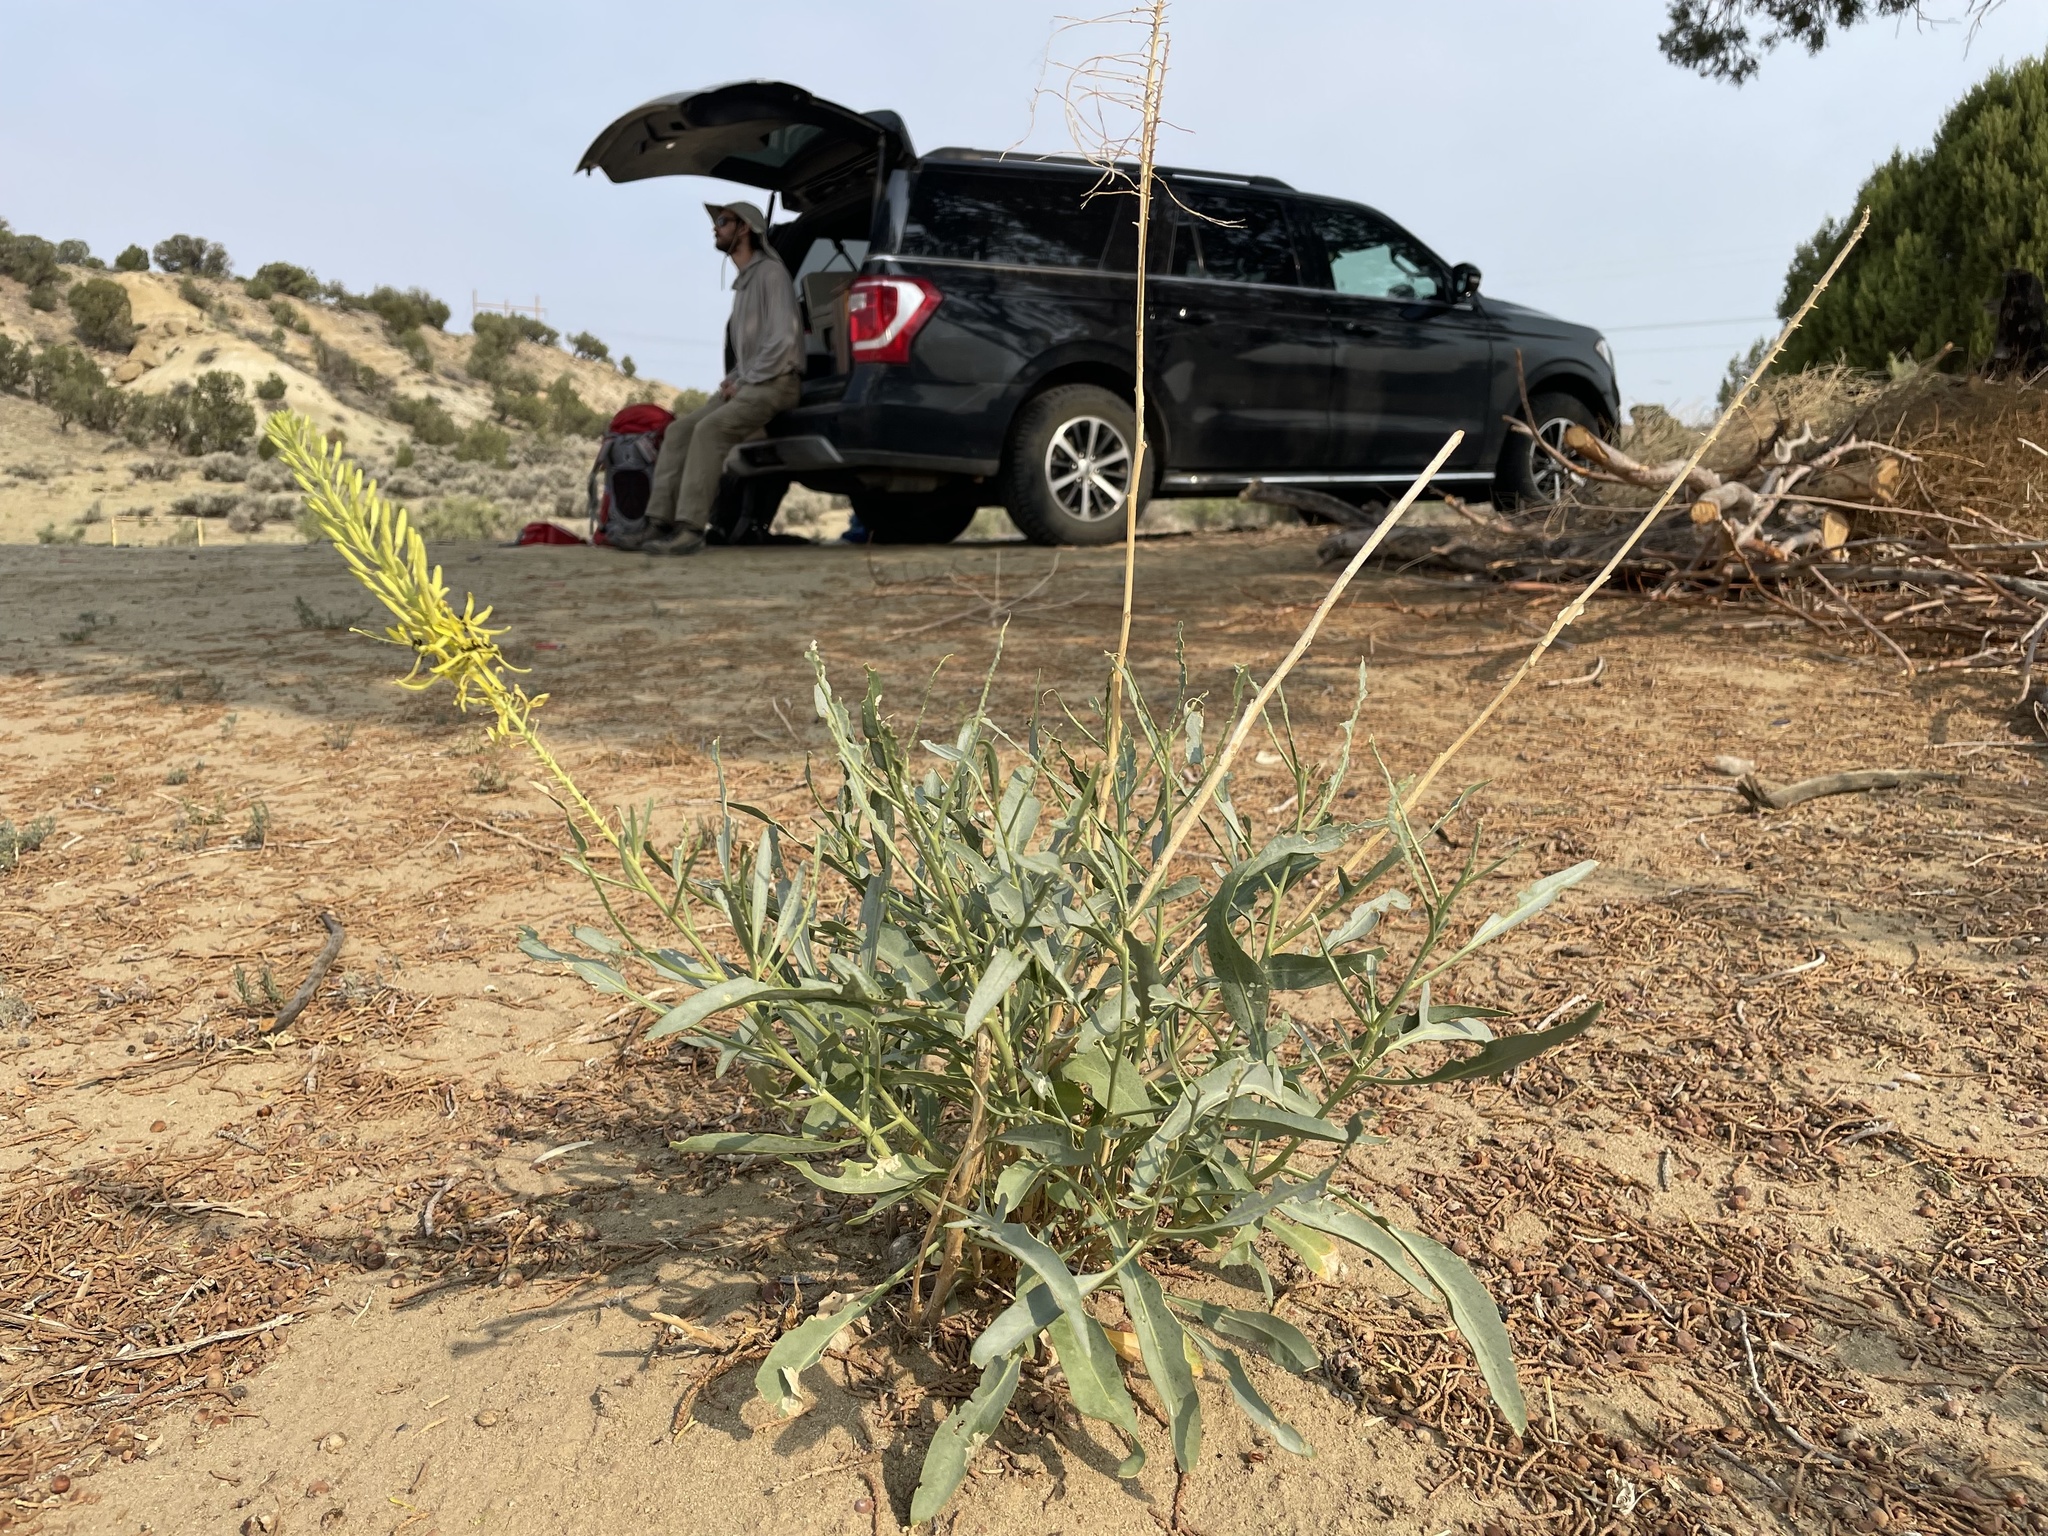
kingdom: Plantae
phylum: Tracheophyta
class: Magnoliopsida
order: Brassicales
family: Brassicaceae
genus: Stanleya
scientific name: Stanleya pinnata
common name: Prince's-plume
